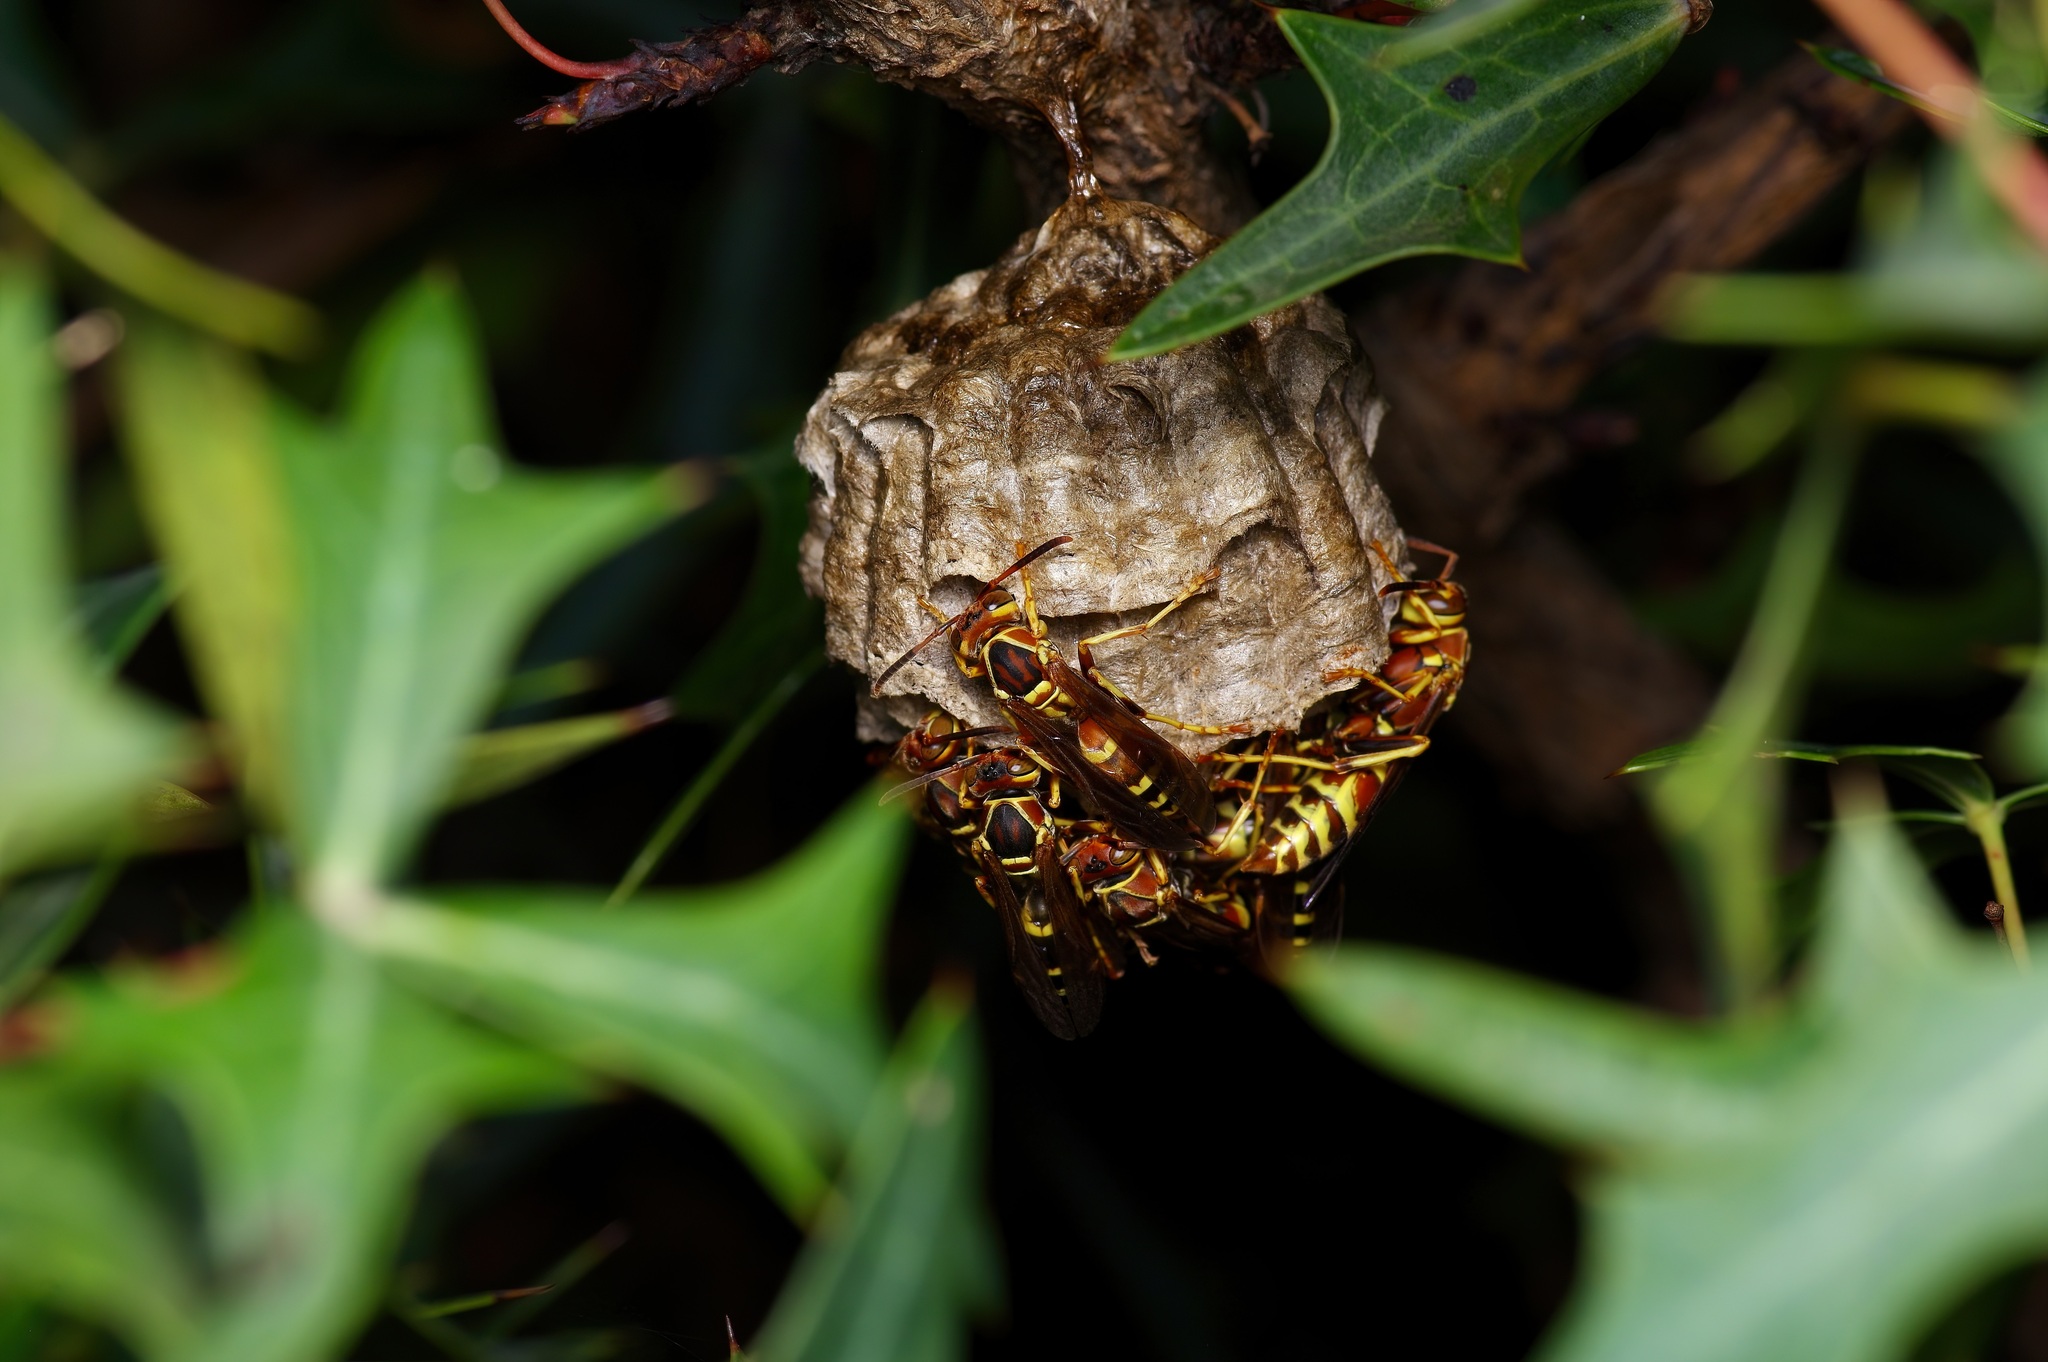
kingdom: Animalia
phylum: Arthropoda
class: Insecta
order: Hymenoptera
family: Eumenidae
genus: Polistes
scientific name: Polistes dorsalis
